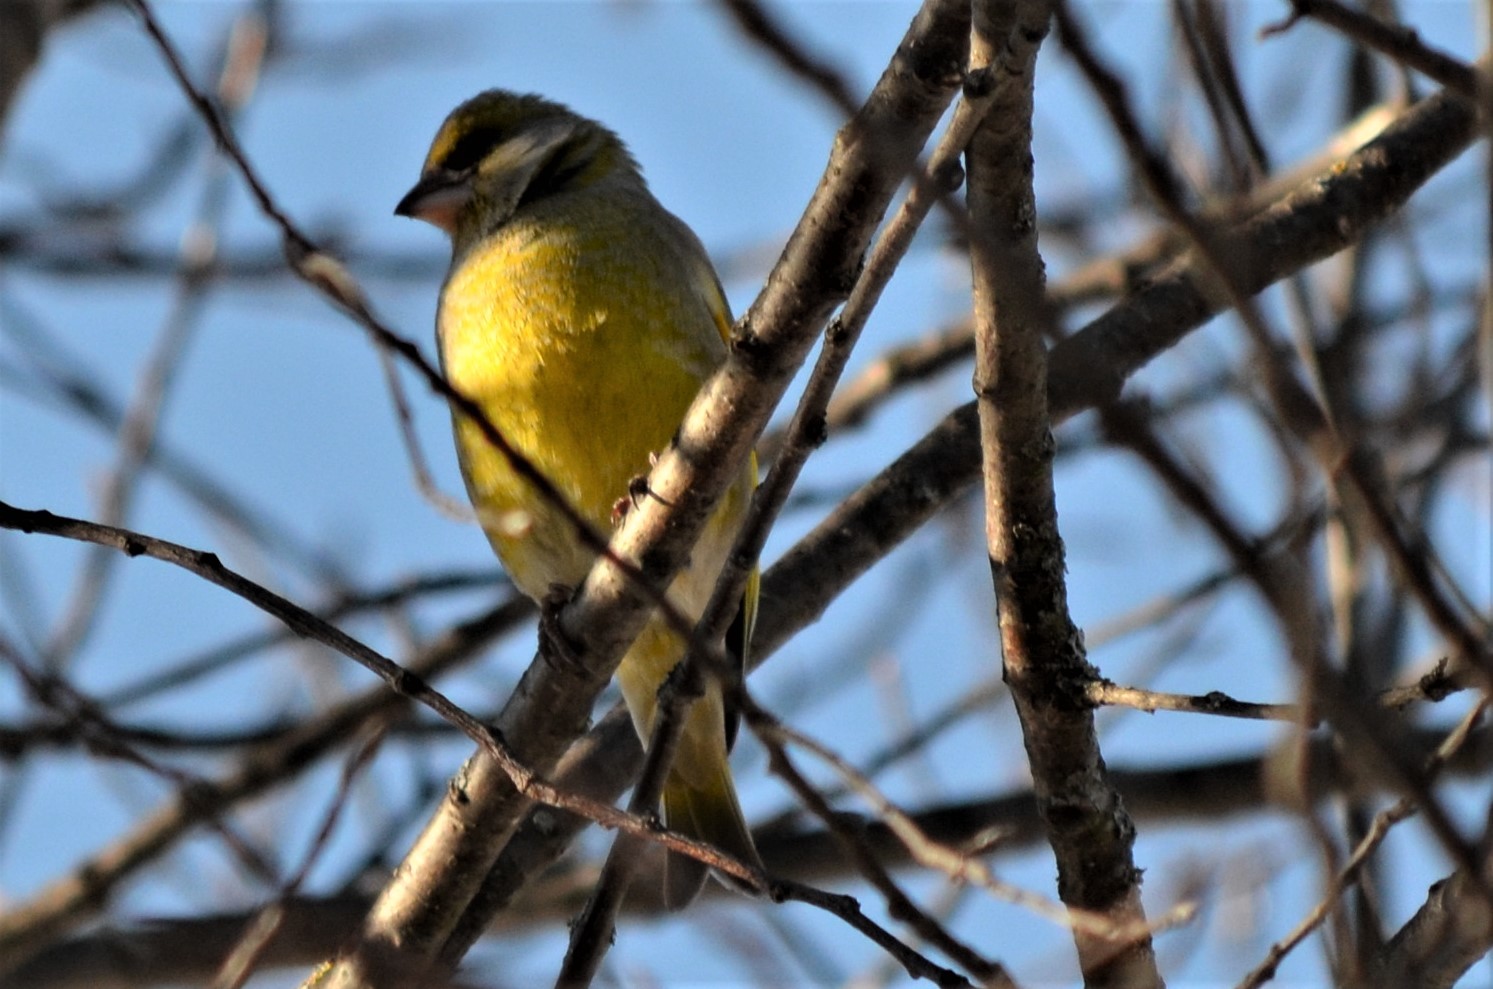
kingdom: Plantae
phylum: Tracheophyta
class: Liliopsida
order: Poales
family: Poaceae
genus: Chloris
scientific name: Chloris chloris
